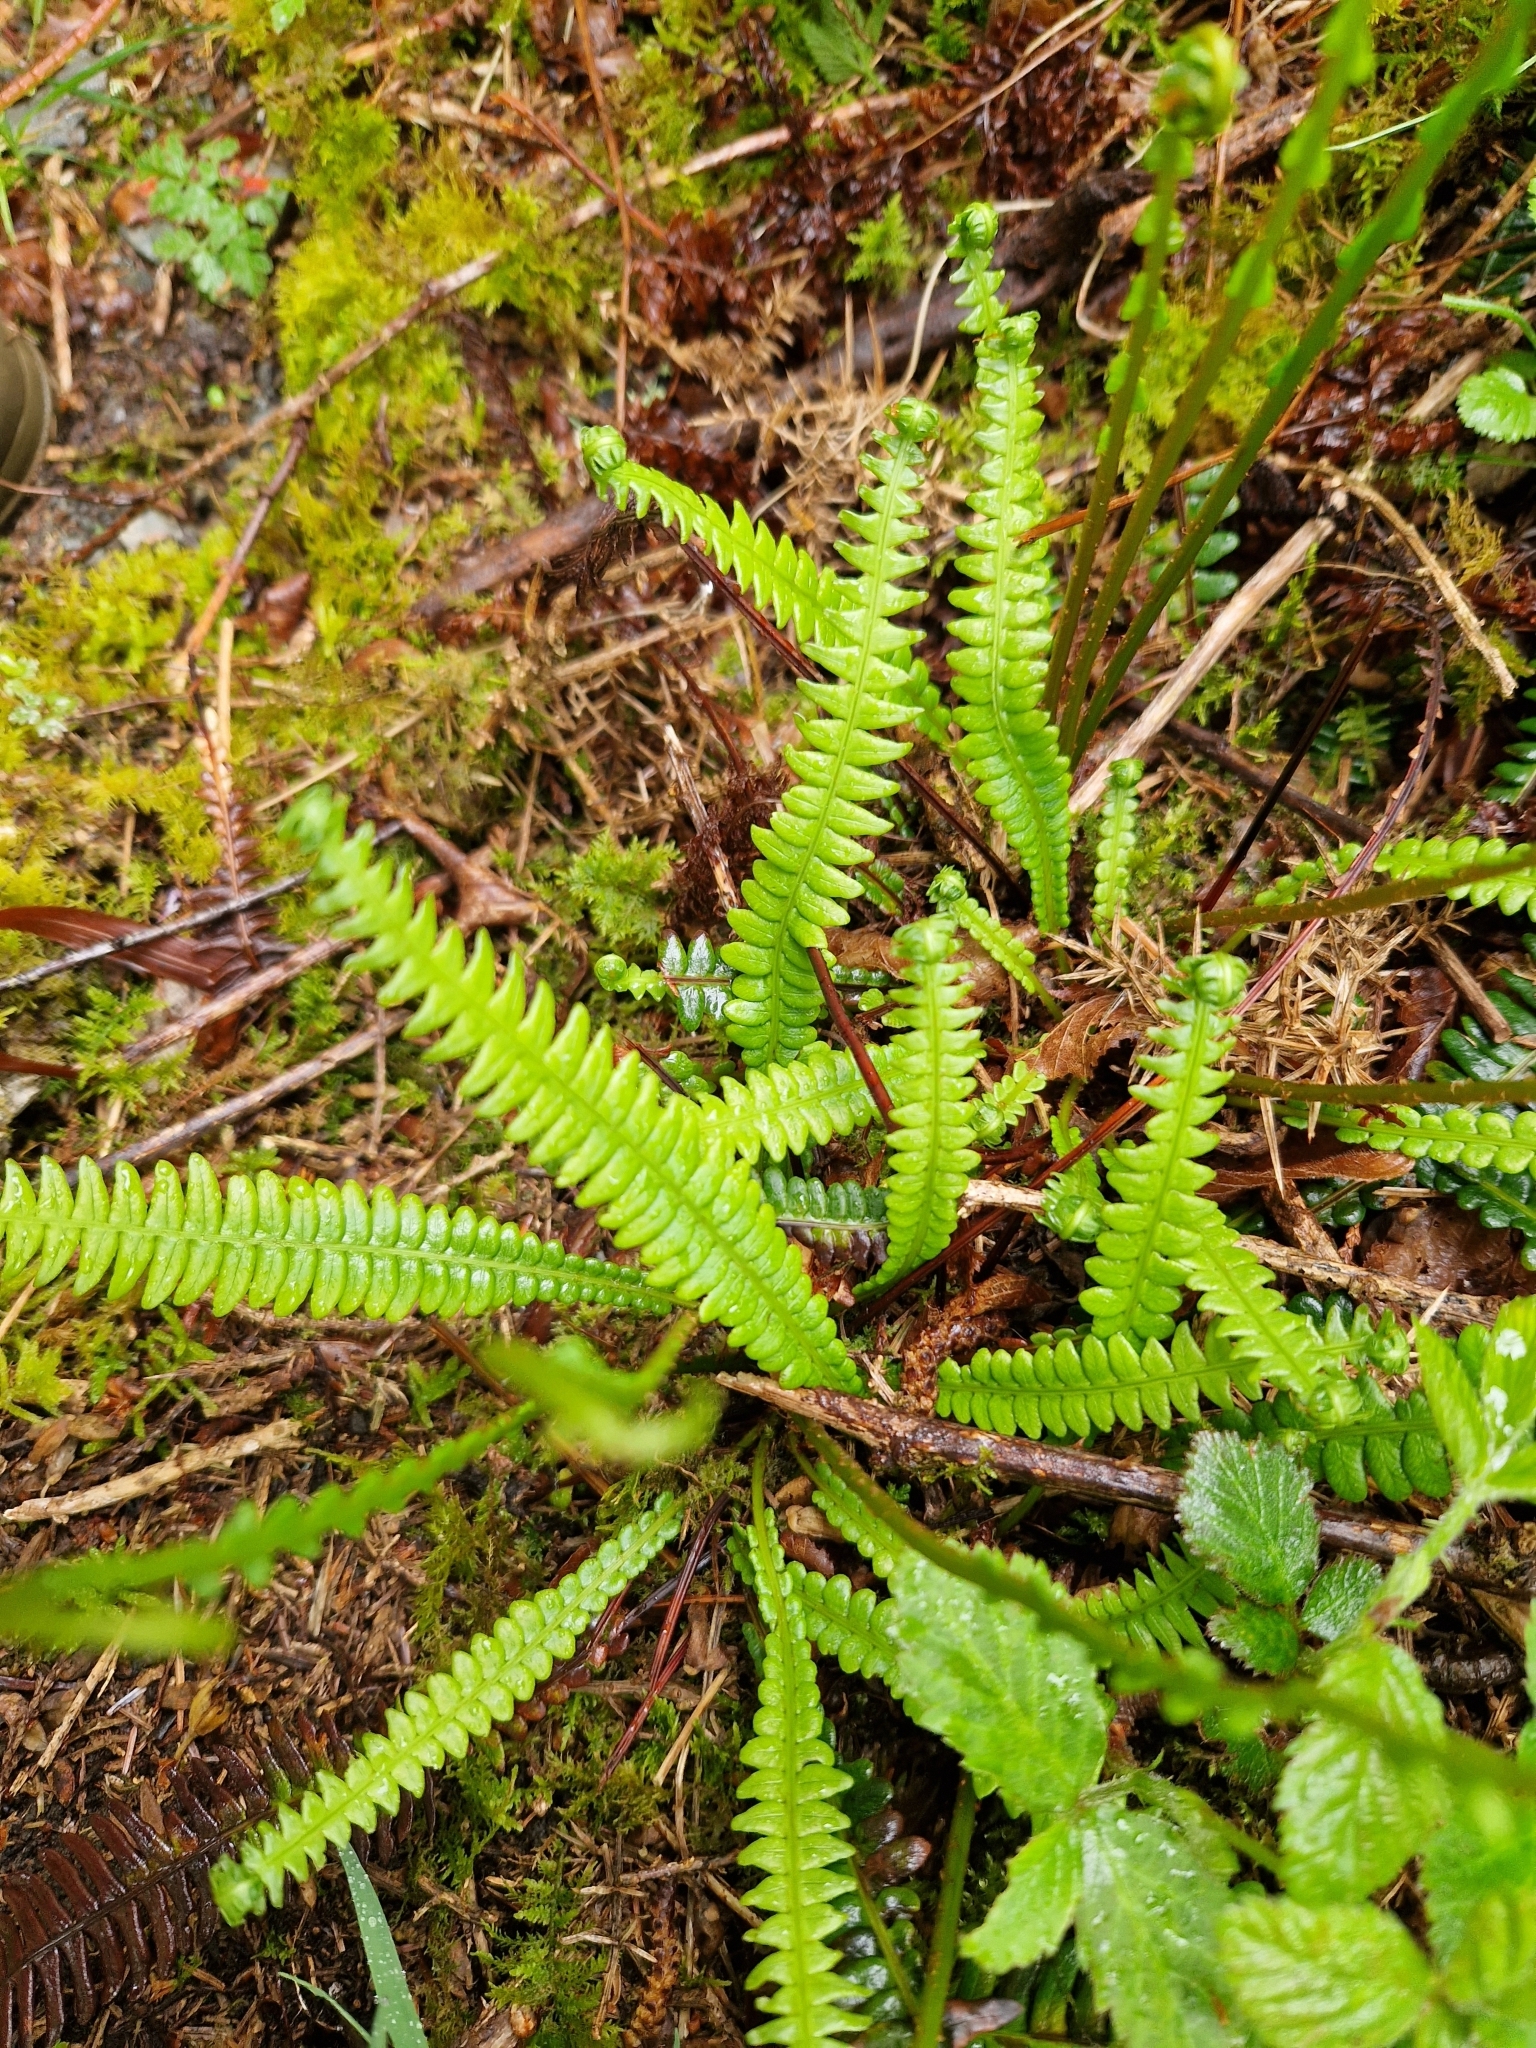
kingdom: Plantae
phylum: Tracheophyta
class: Polypodiopsida
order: Polypodiales
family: Blechnaceae
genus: Struthiopteris
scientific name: Struthiopteris spicant
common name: Deer fern
